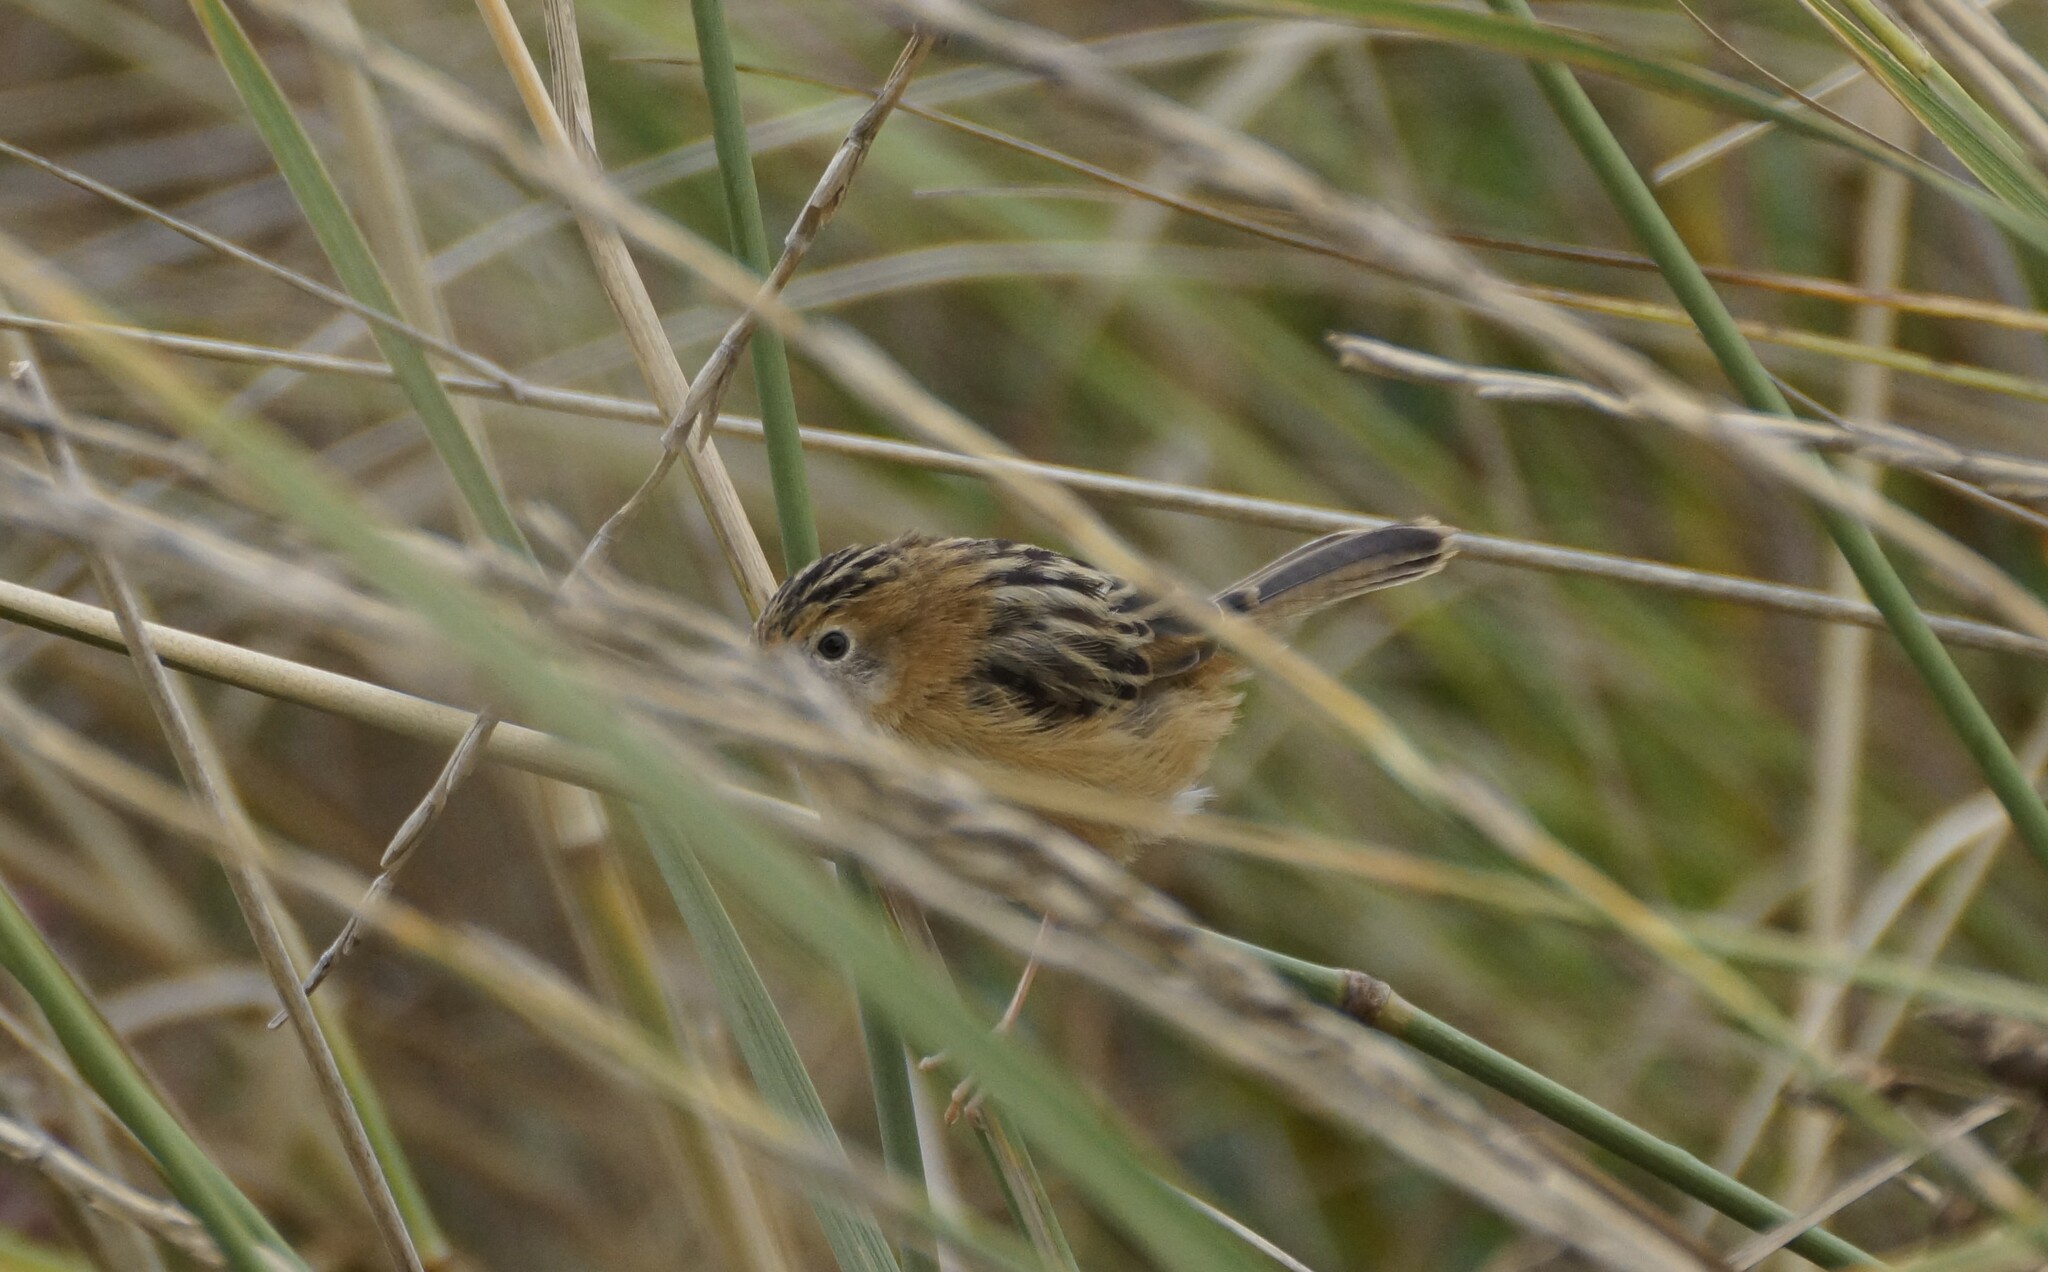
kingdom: Animalia
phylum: Chordata
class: Aves
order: Passeriformes
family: Cisticolidae
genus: Cisticola
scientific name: Cisticola exilis
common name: Golden-headed cisticola
